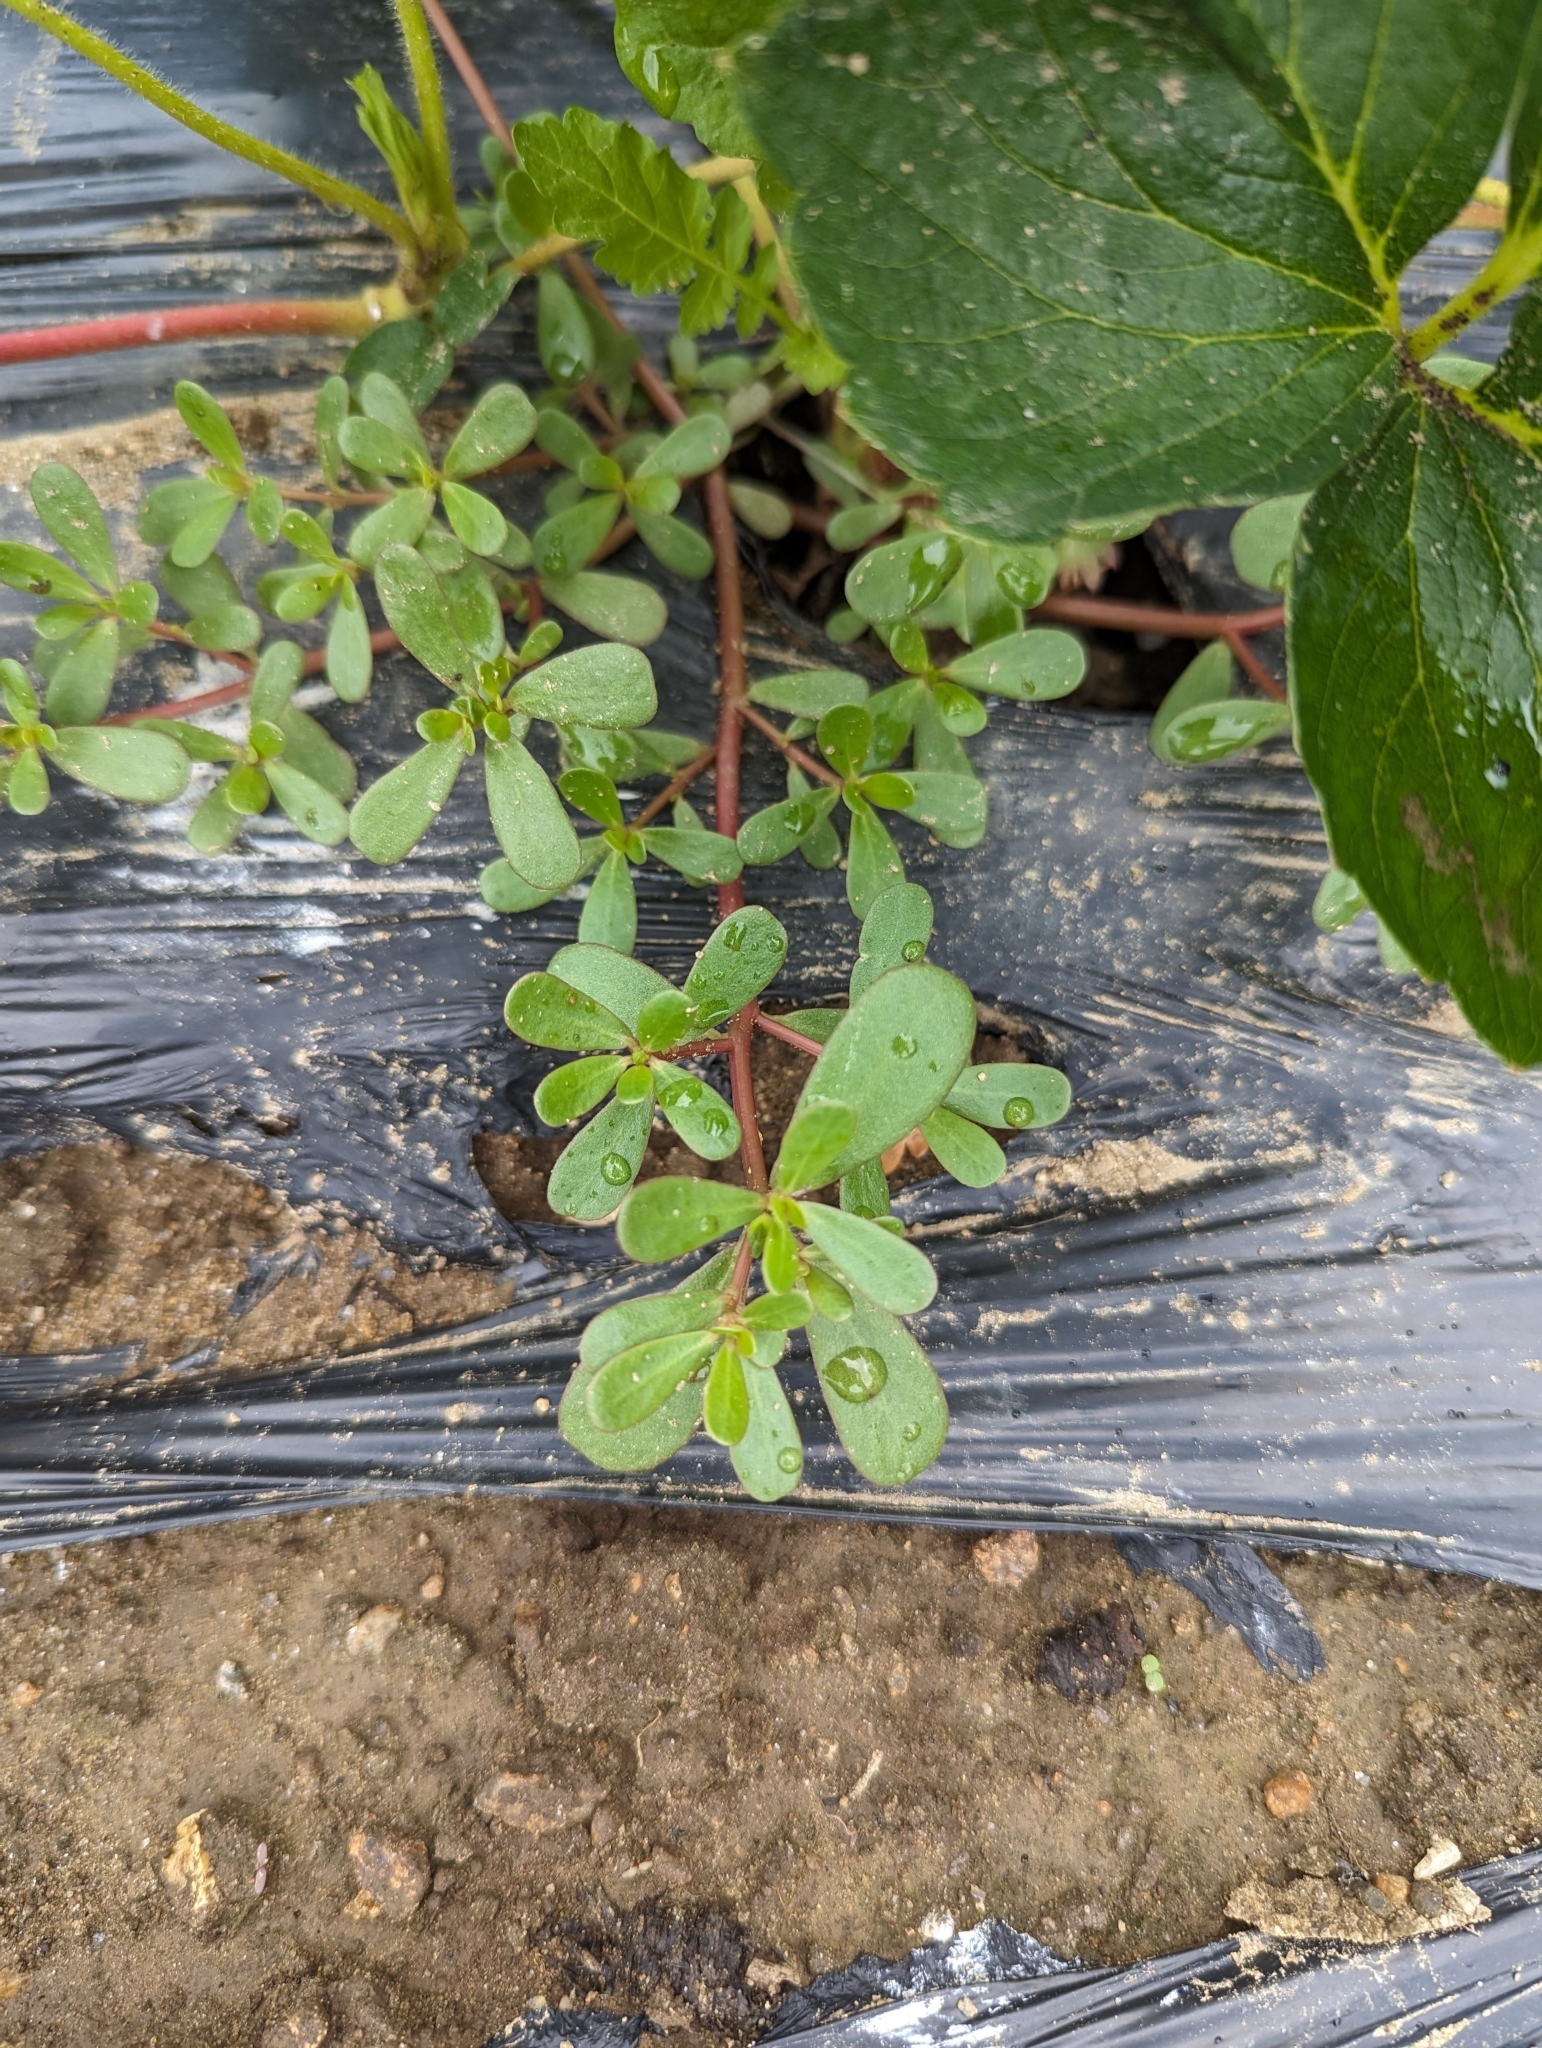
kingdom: Plantae
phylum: Tracheophyta
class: Magnoliopsida
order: Caryophyllales
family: Portulacaceae
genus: Portulaca
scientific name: Portulaca oleracea
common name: Common purslane
